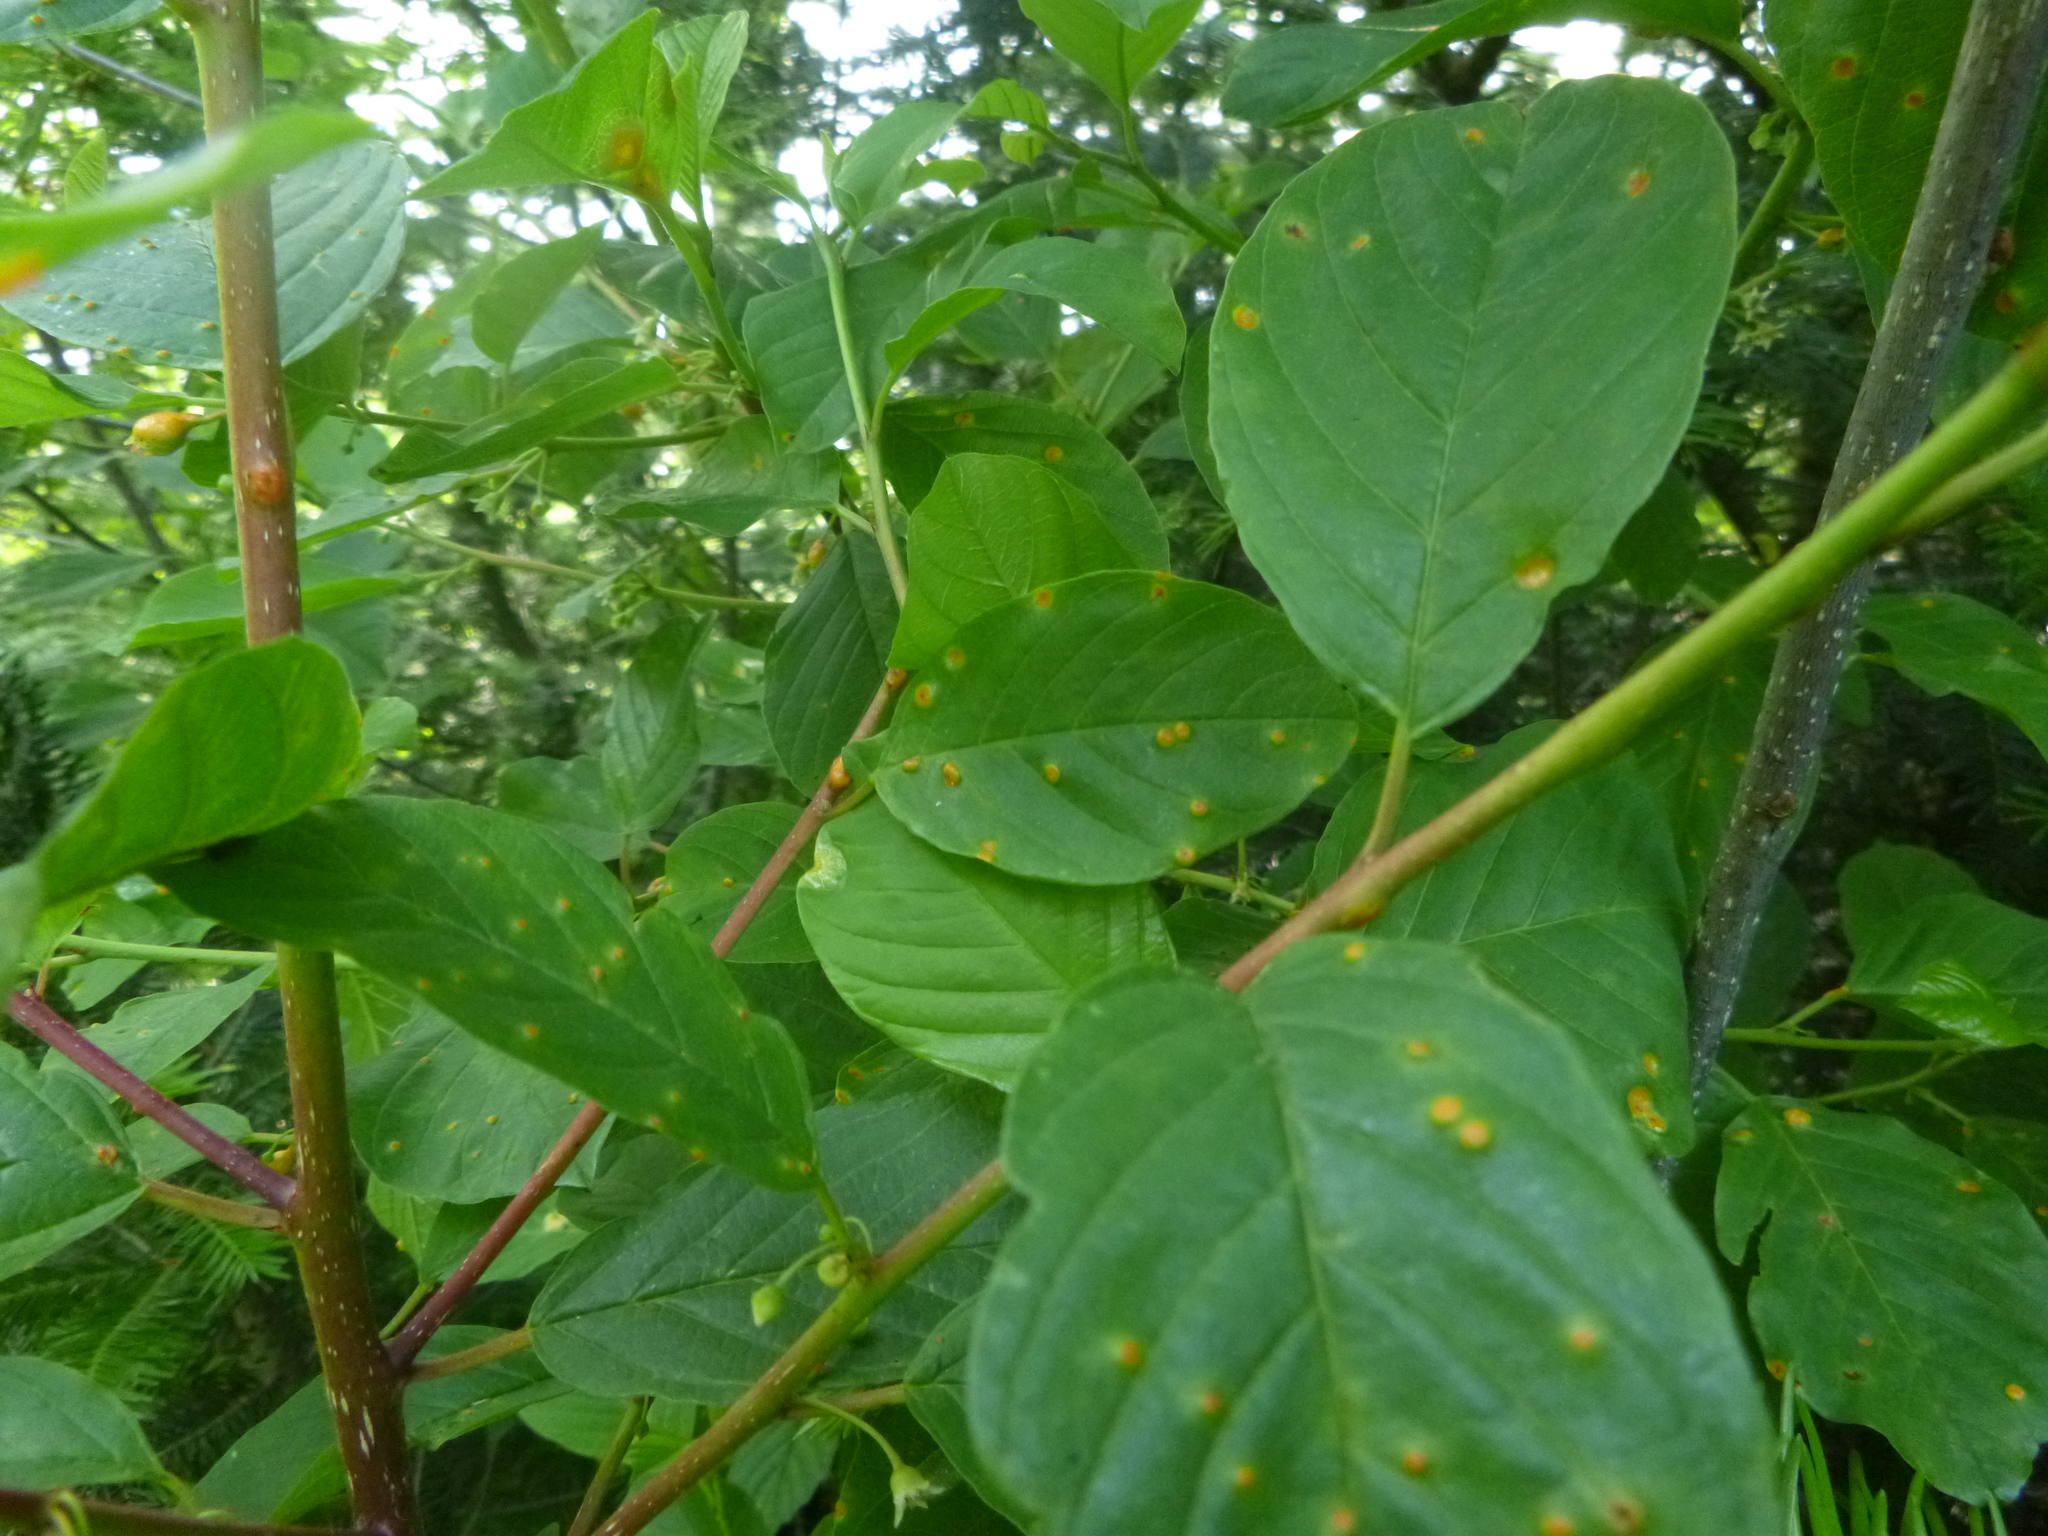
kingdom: Fungi
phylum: Basidiomycota
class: Pucciniomycetes
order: Pucciniales
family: Pucciniaceae
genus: Puccinia
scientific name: Puccinia coronata
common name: Crown rust
